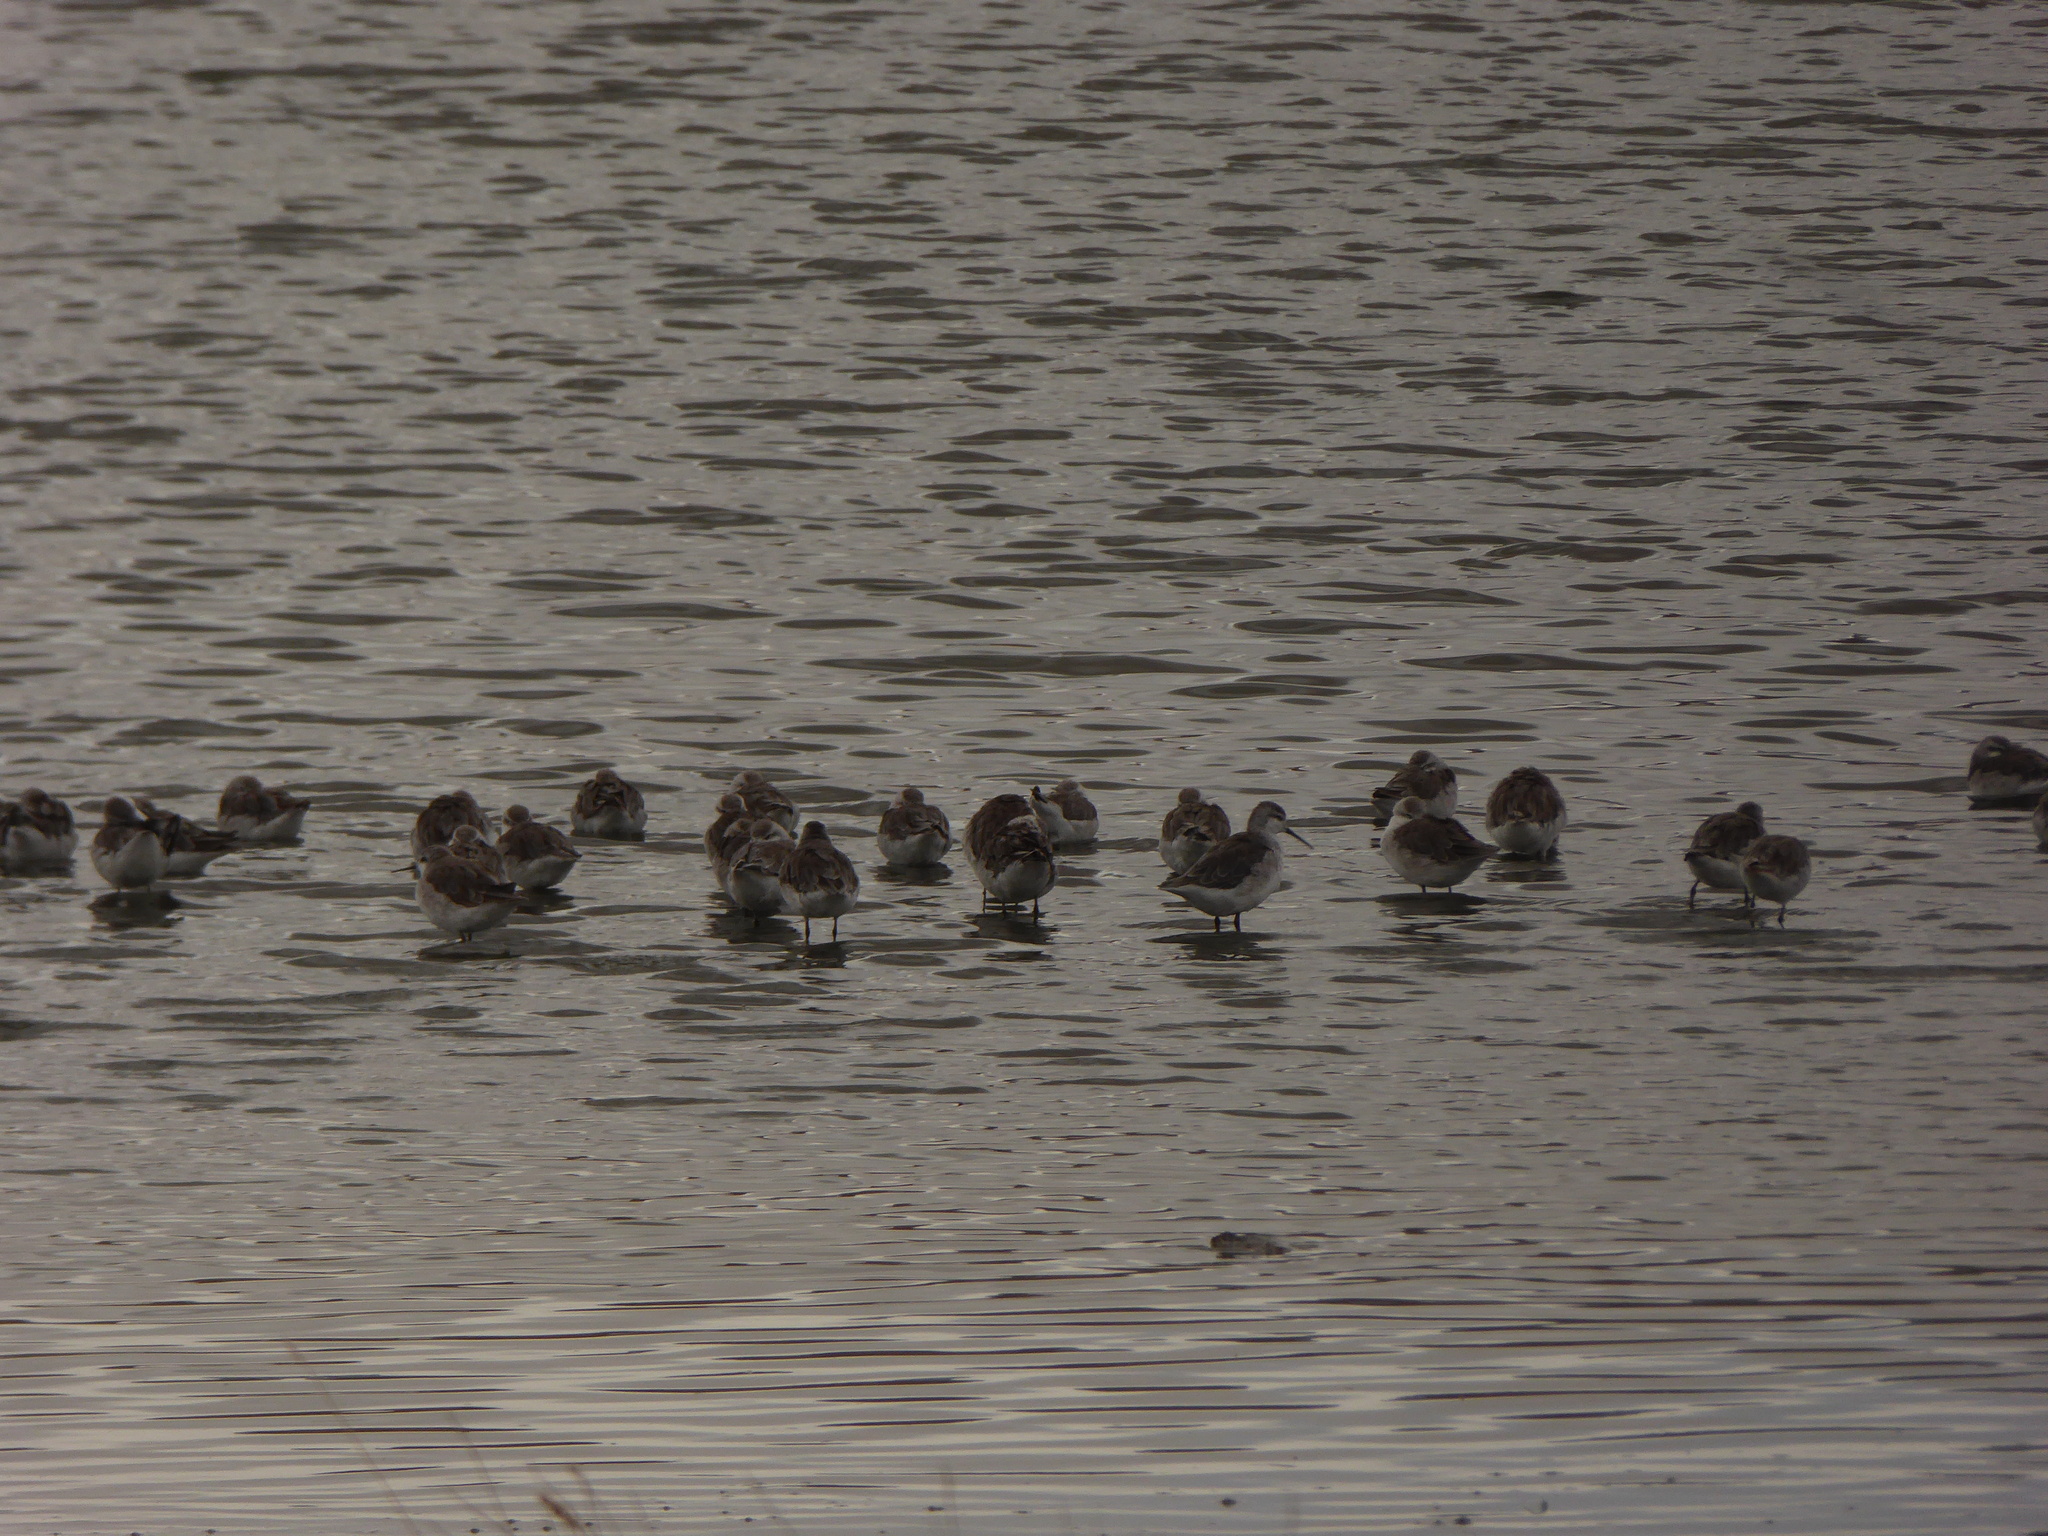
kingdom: Animalia
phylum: Chordata
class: Aves
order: Charadriiformes
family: Scolopacidae
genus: Phalaropus
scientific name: Phalaropus tricolor
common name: Wilson's phalarope
